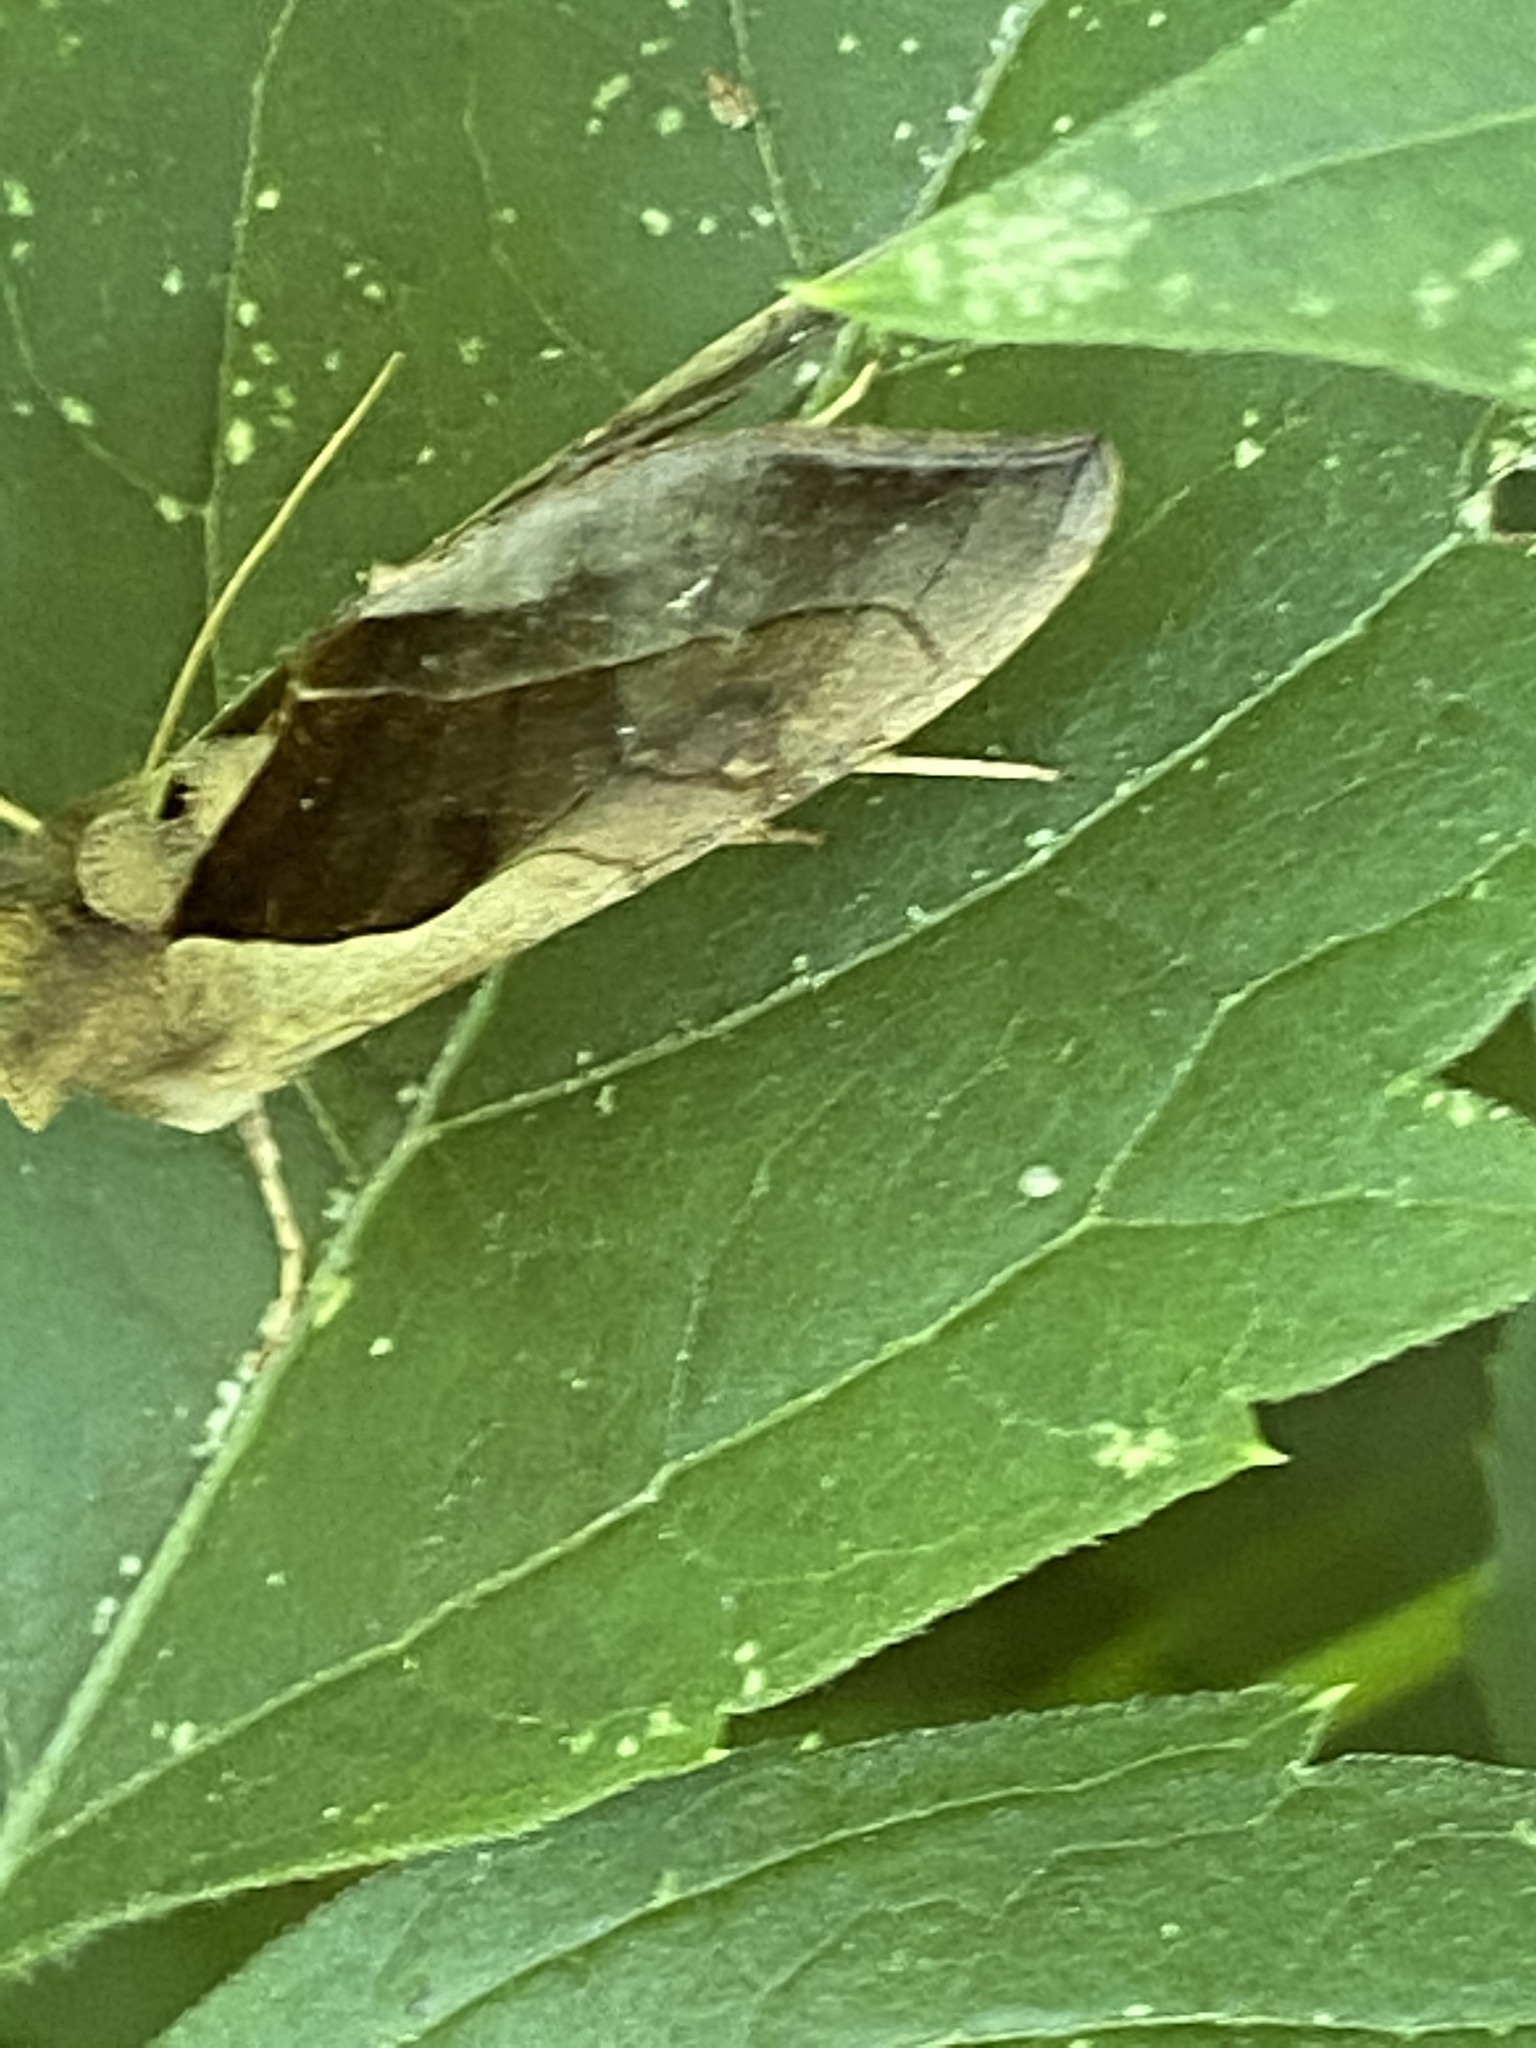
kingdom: Animalia
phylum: Arthropoda
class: Insecta
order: Lepidoptera
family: Noctuidae
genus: Diachrysia
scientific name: Diachrysia balluca
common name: Green-patched looper moth
